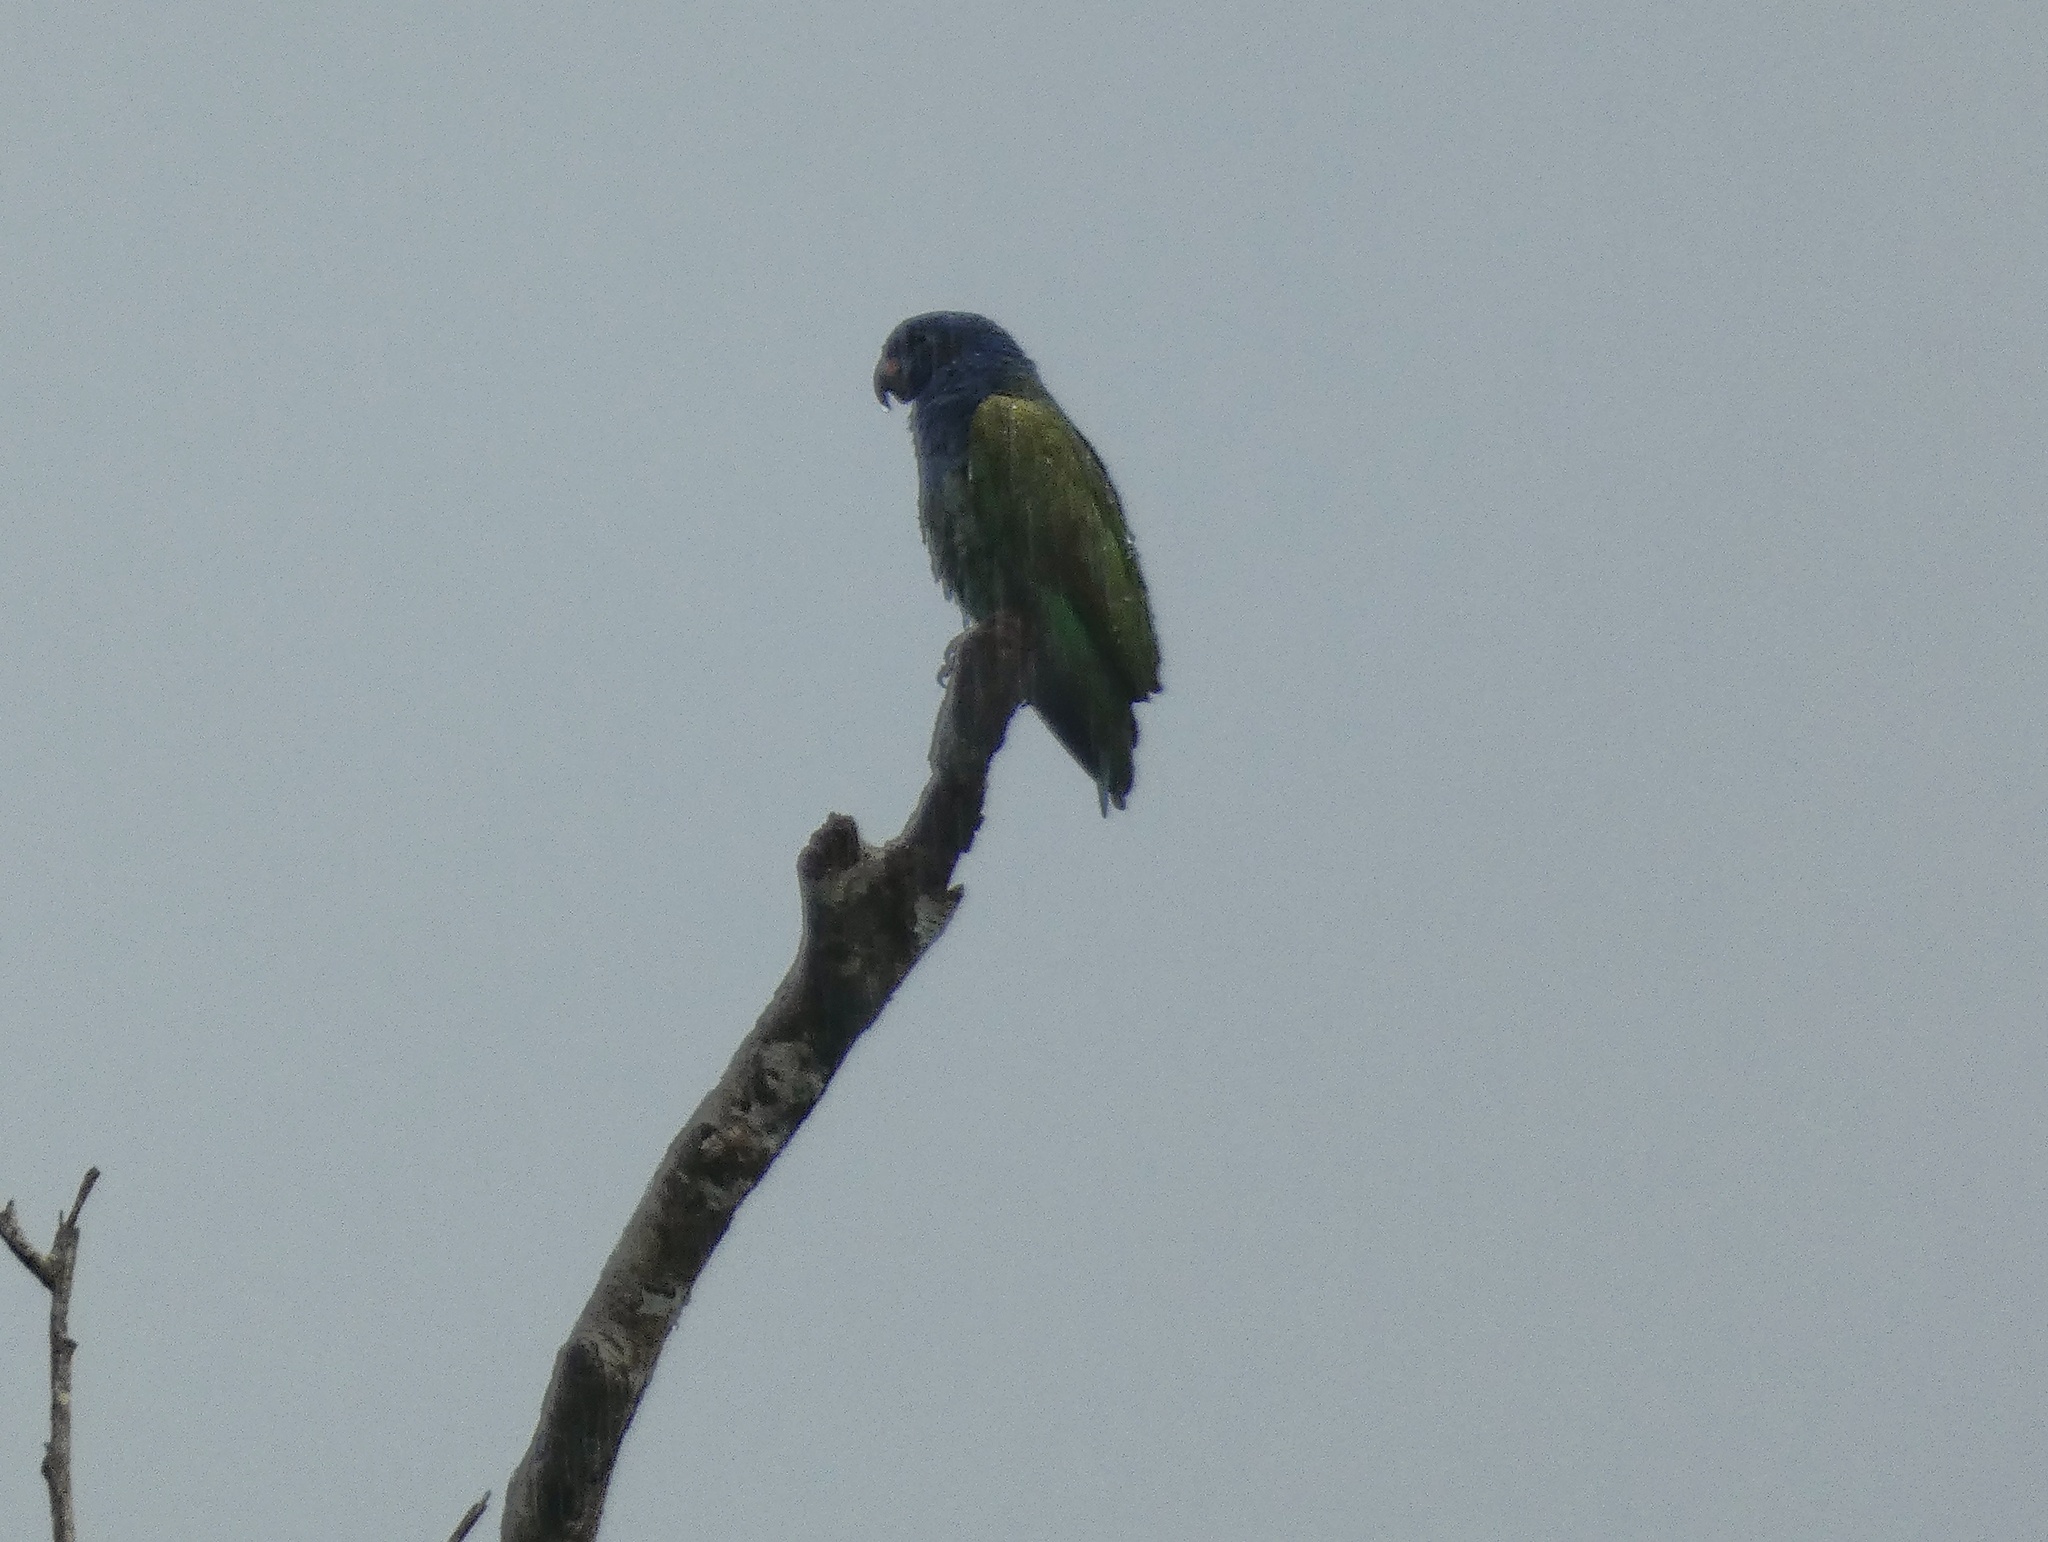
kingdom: Animalia
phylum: Chordata
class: Aves
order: Psittaciformes
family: Psittacidae
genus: Pionus
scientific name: Pionus menstruus
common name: Blue-headed parrot
